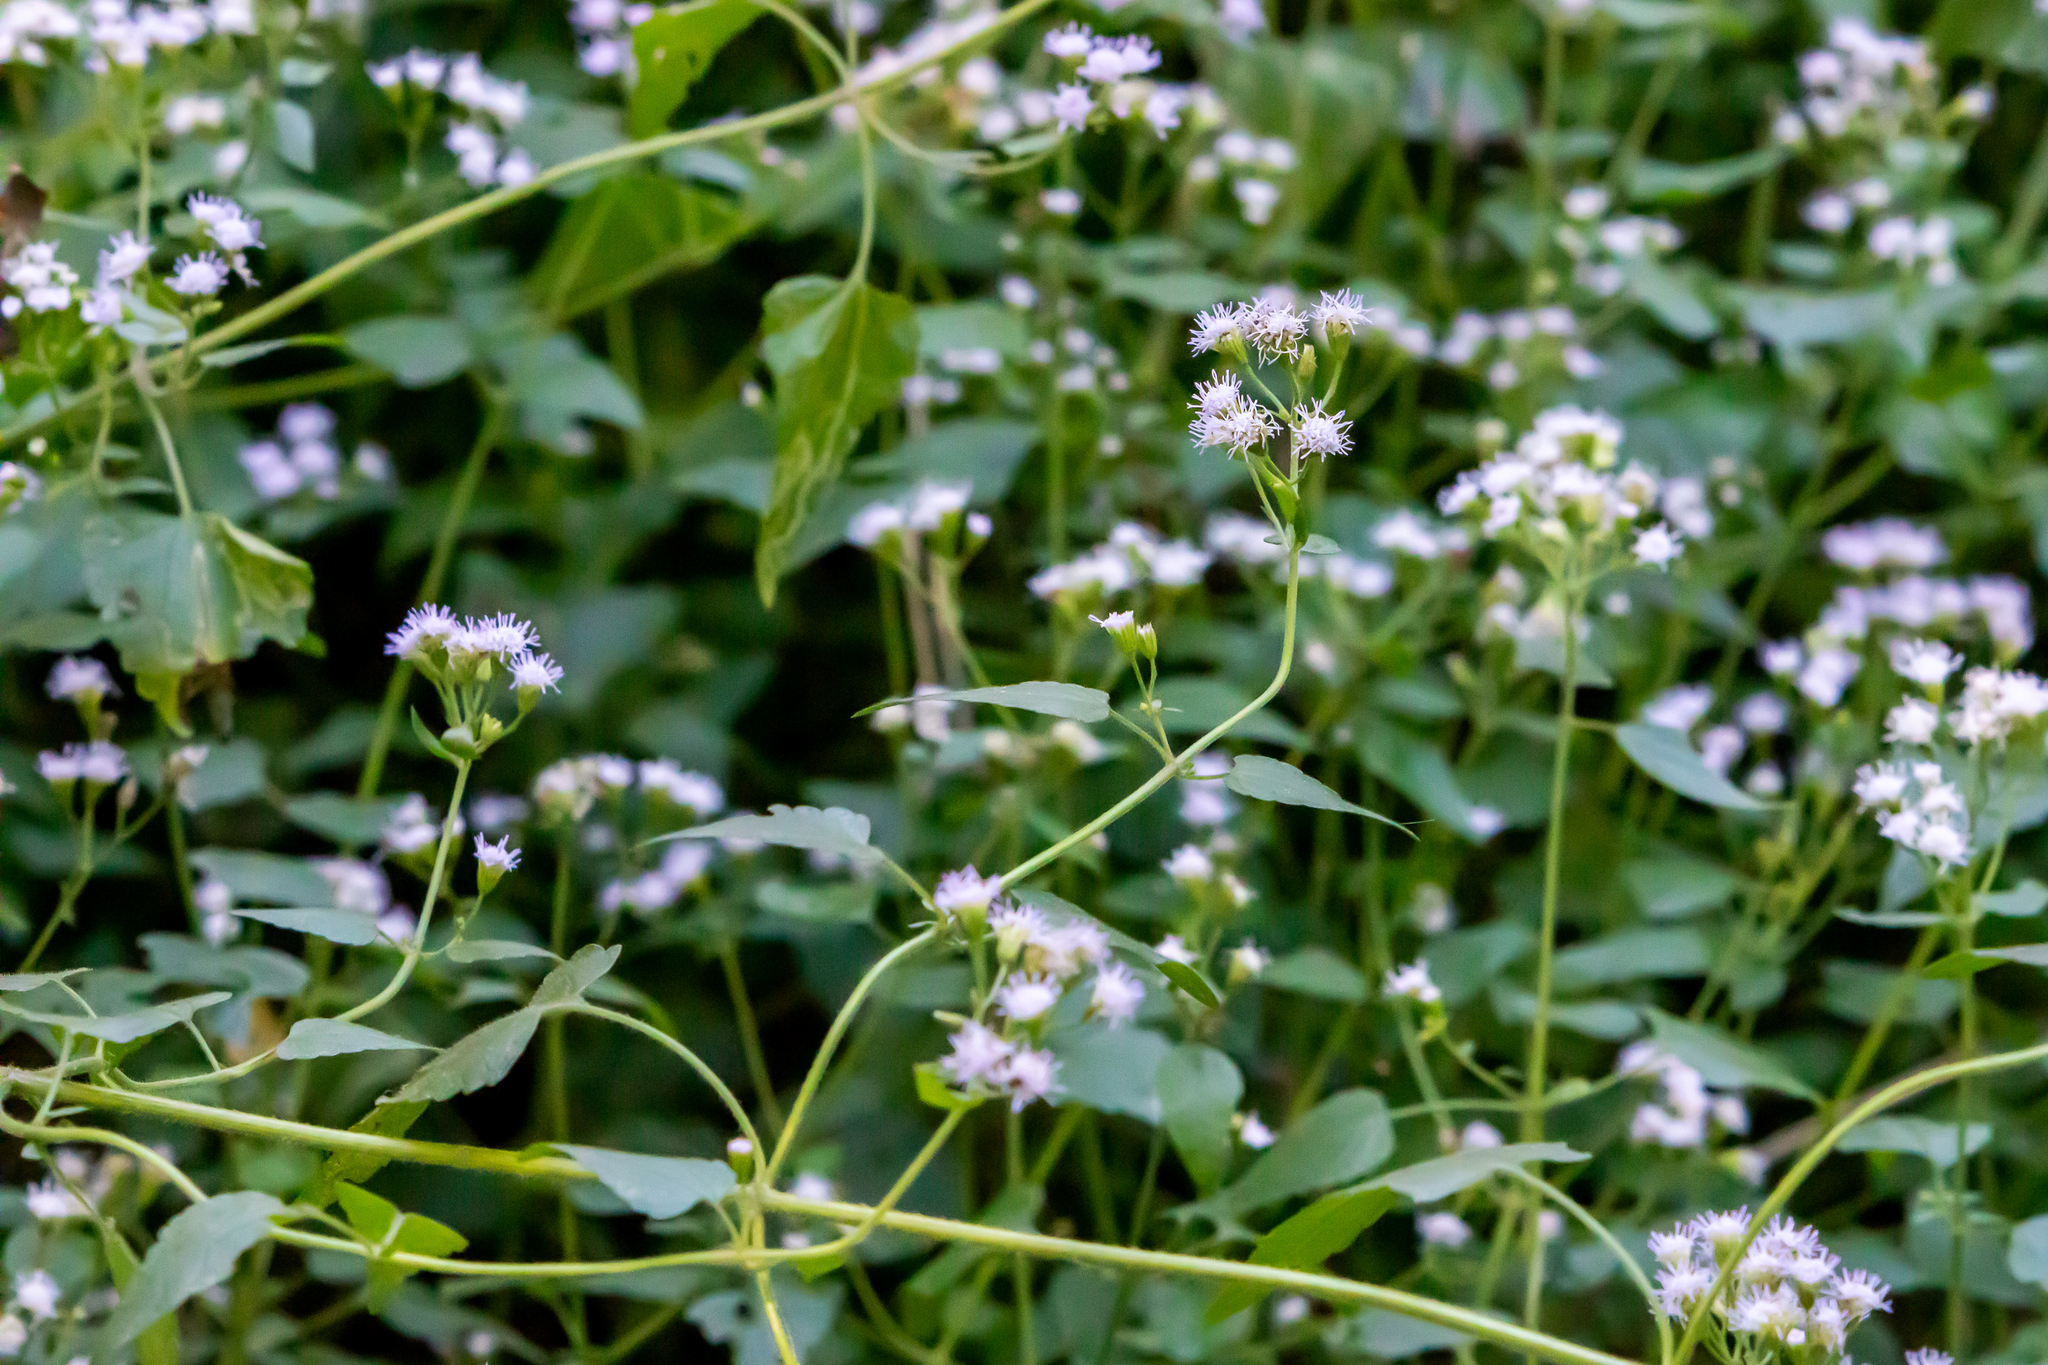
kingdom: Plantae
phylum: Tracheophyta
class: Magnoliopsida
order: Asterales
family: Asteraceae
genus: Fleischmannia
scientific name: Fleischmannia incarnata
